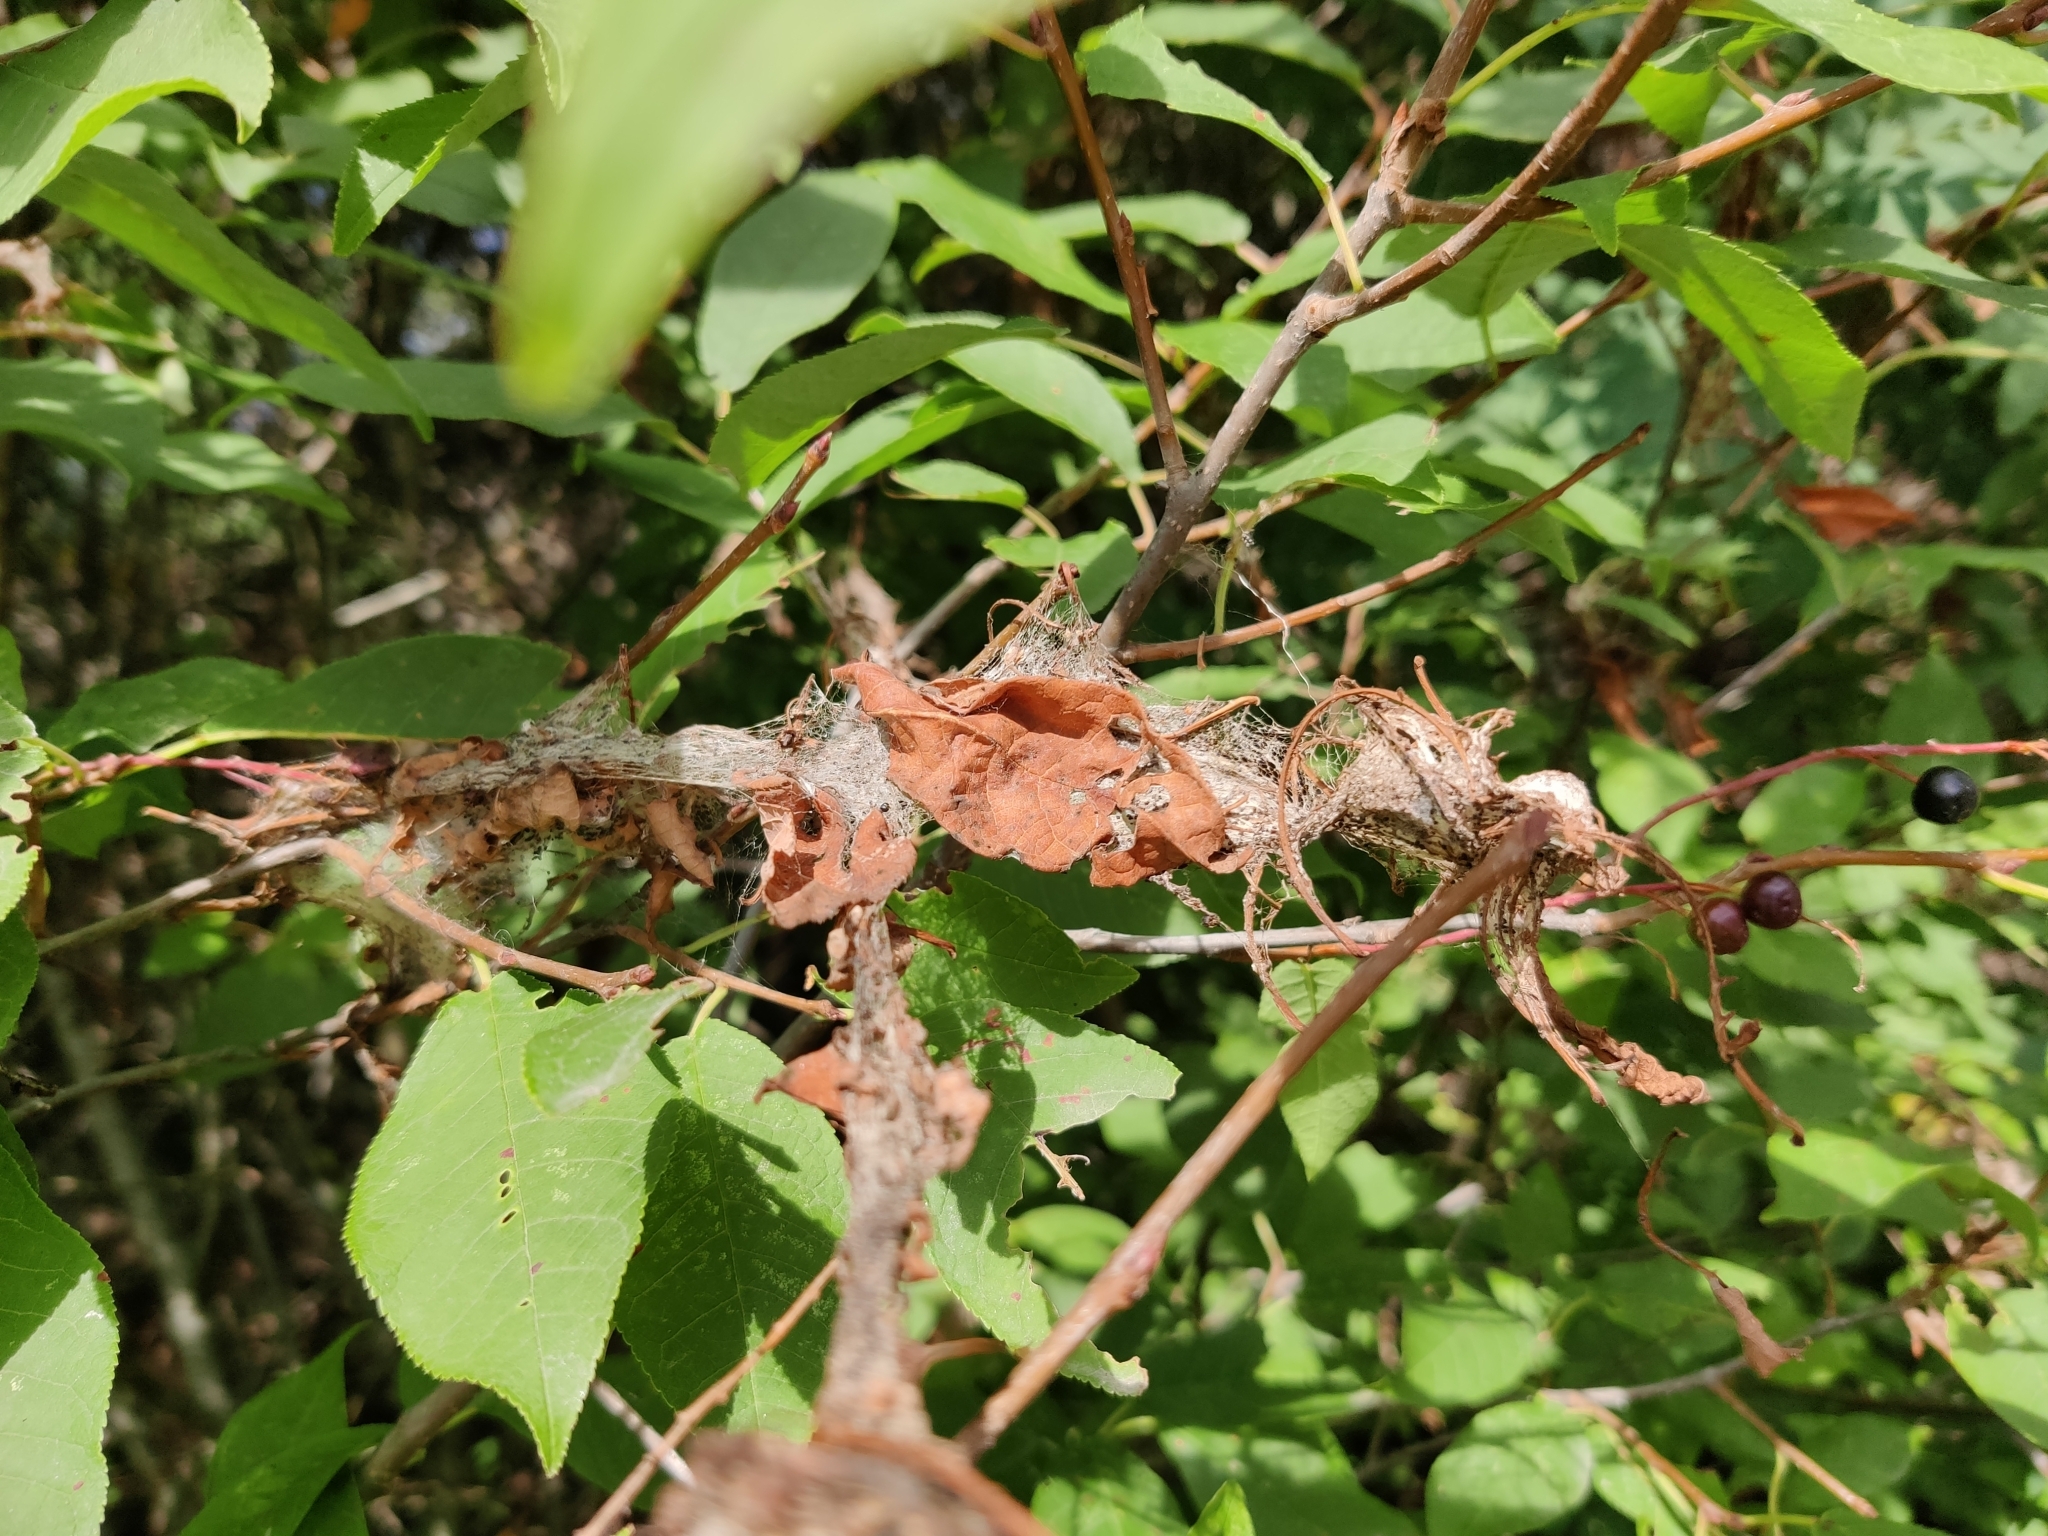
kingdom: Animalia
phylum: Arthropoda
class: Insecta
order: Lepidoptera
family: Yponomeutidae
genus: Yponomeuta
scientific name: Yponomeuta evonymella
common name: Bird-cherry ermine
